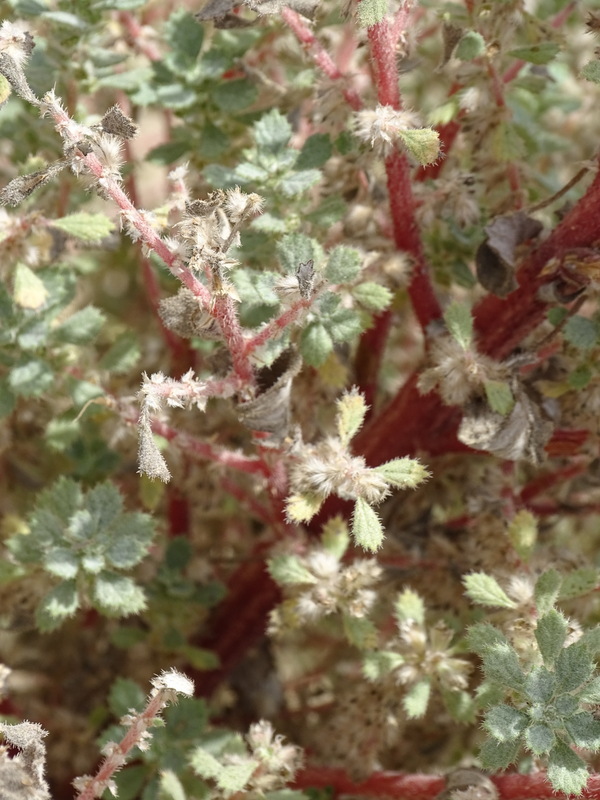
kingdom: Plantae
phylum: Tracheophyta
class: Magnoliopsida
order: Rosales
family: Urticaceae
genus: Forsskaolea
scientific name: Forsskaolea tenacissima
